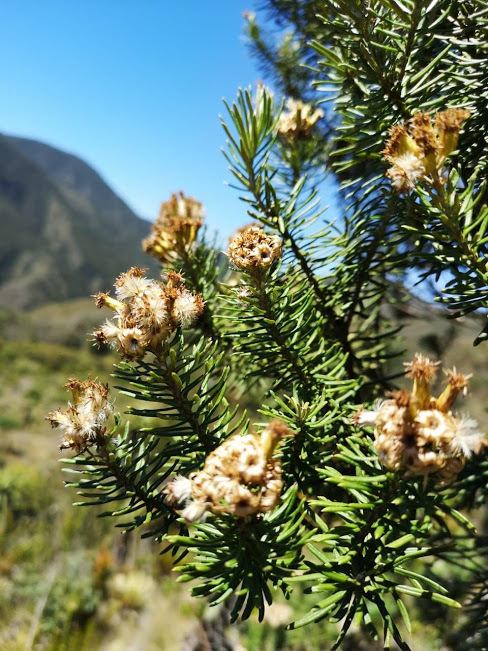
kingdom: Plantae
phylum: Tracheophyta
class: Magnoliopsida
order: Asterales
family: Asteraceae
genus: Linochilus
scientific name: Linochilus rosmarinifolius
